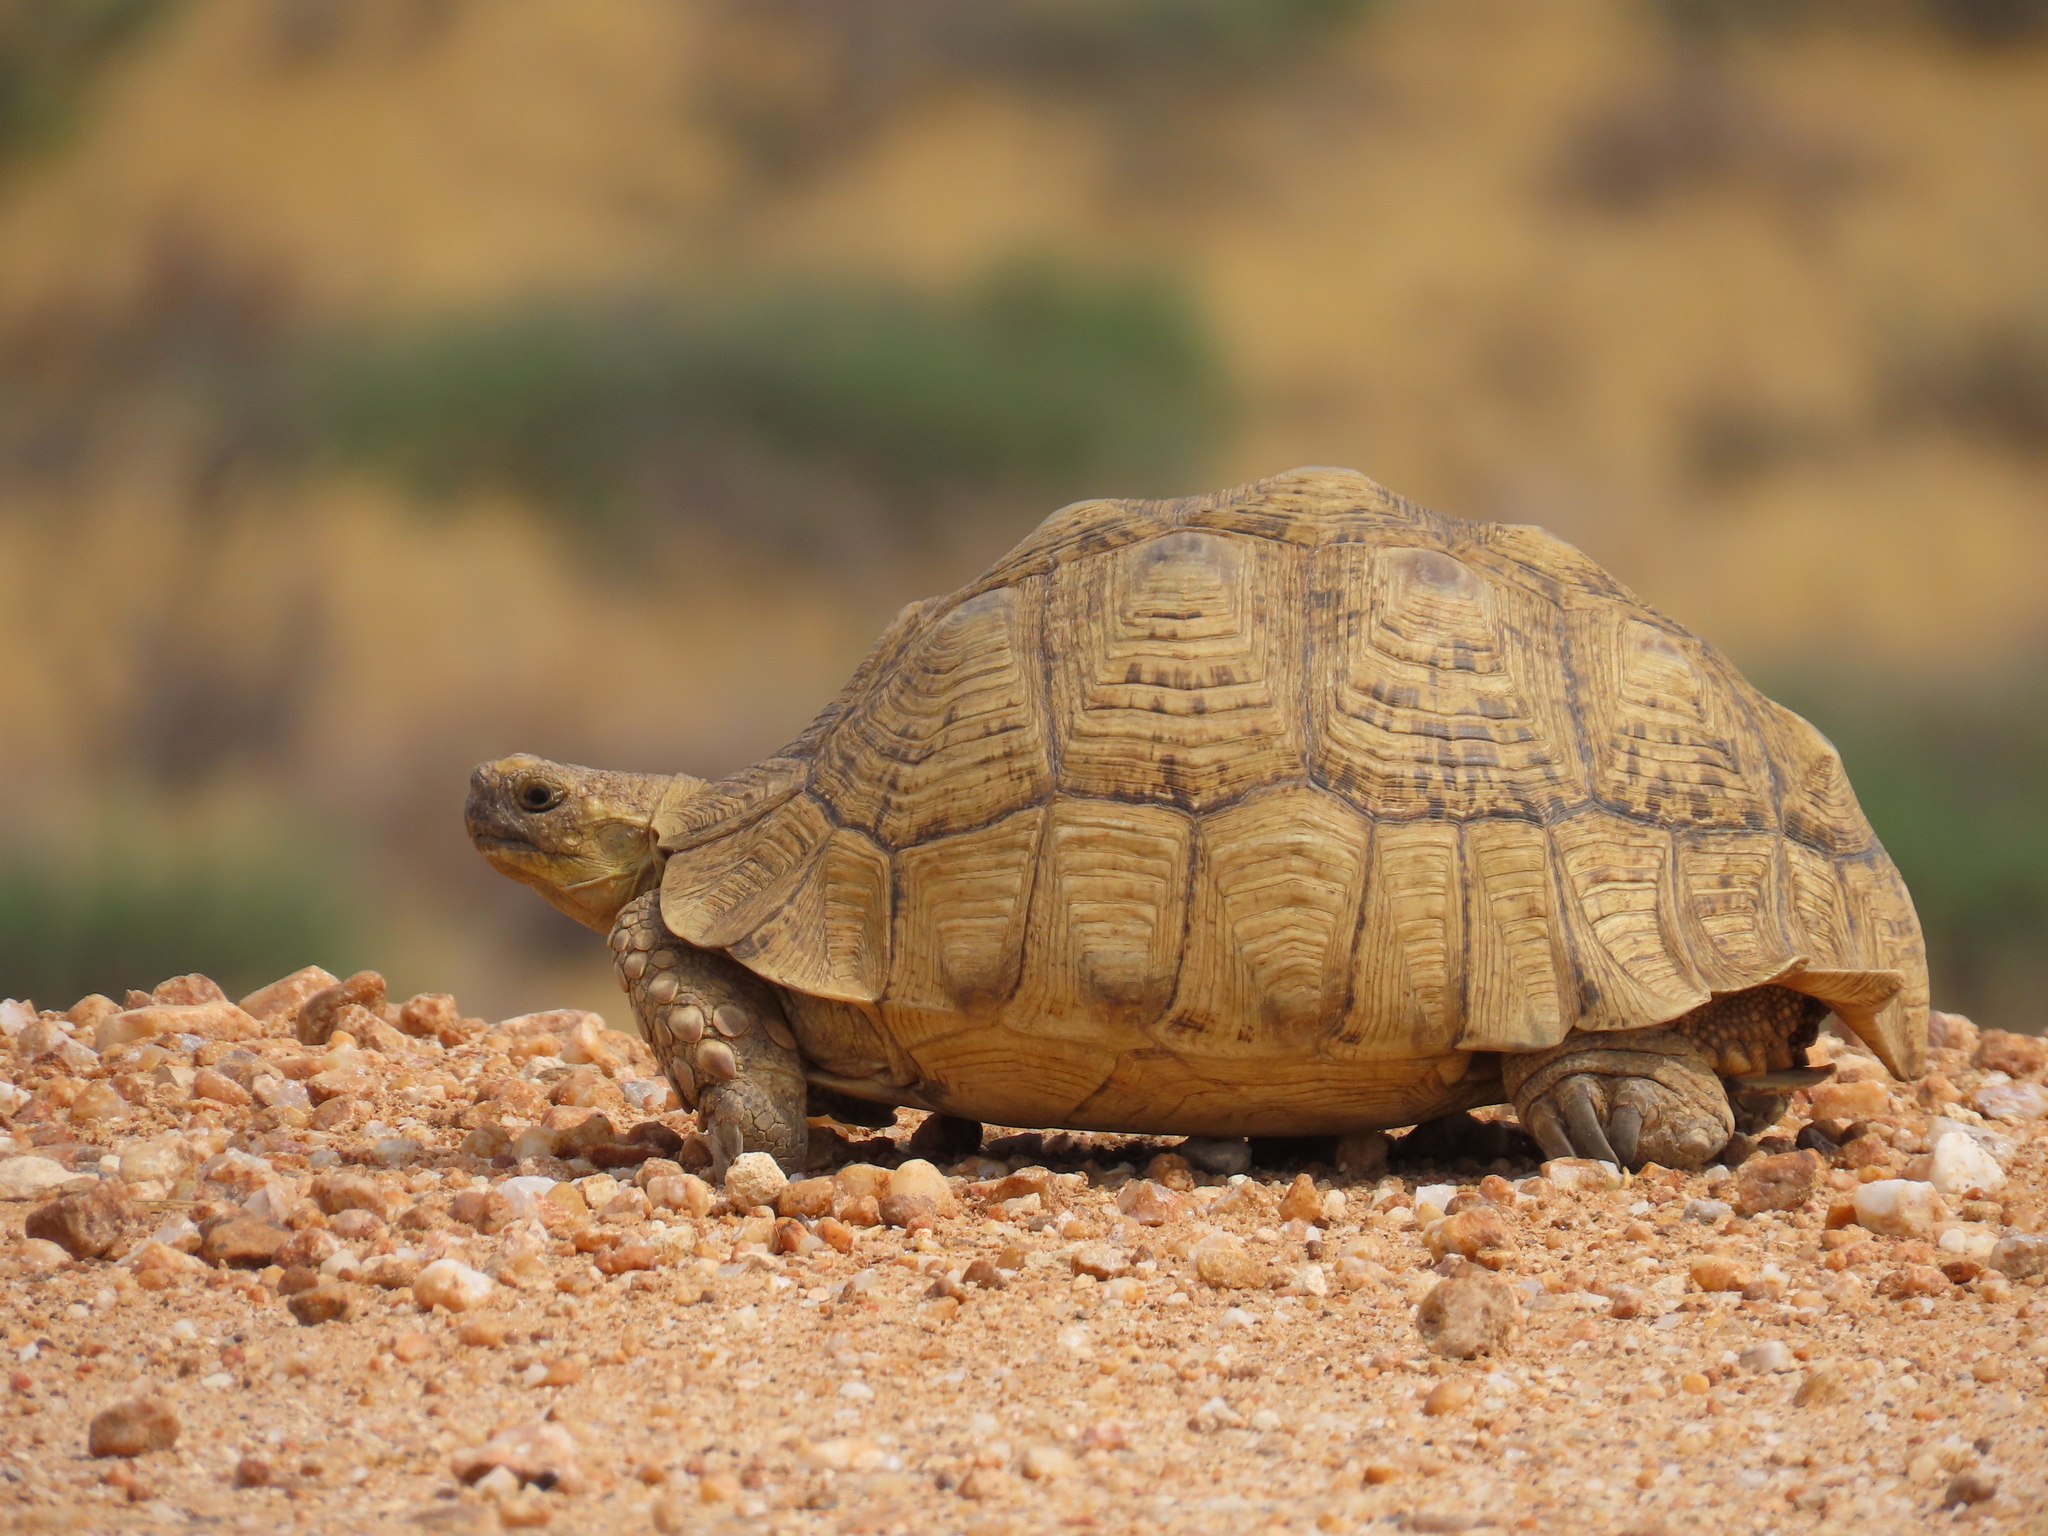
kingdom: Animalia
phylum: Chordata
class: Testudines
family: Testudinidae
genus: Stigmochelys
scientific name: Stigmochelys pardalis
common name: Leopard tortoise
